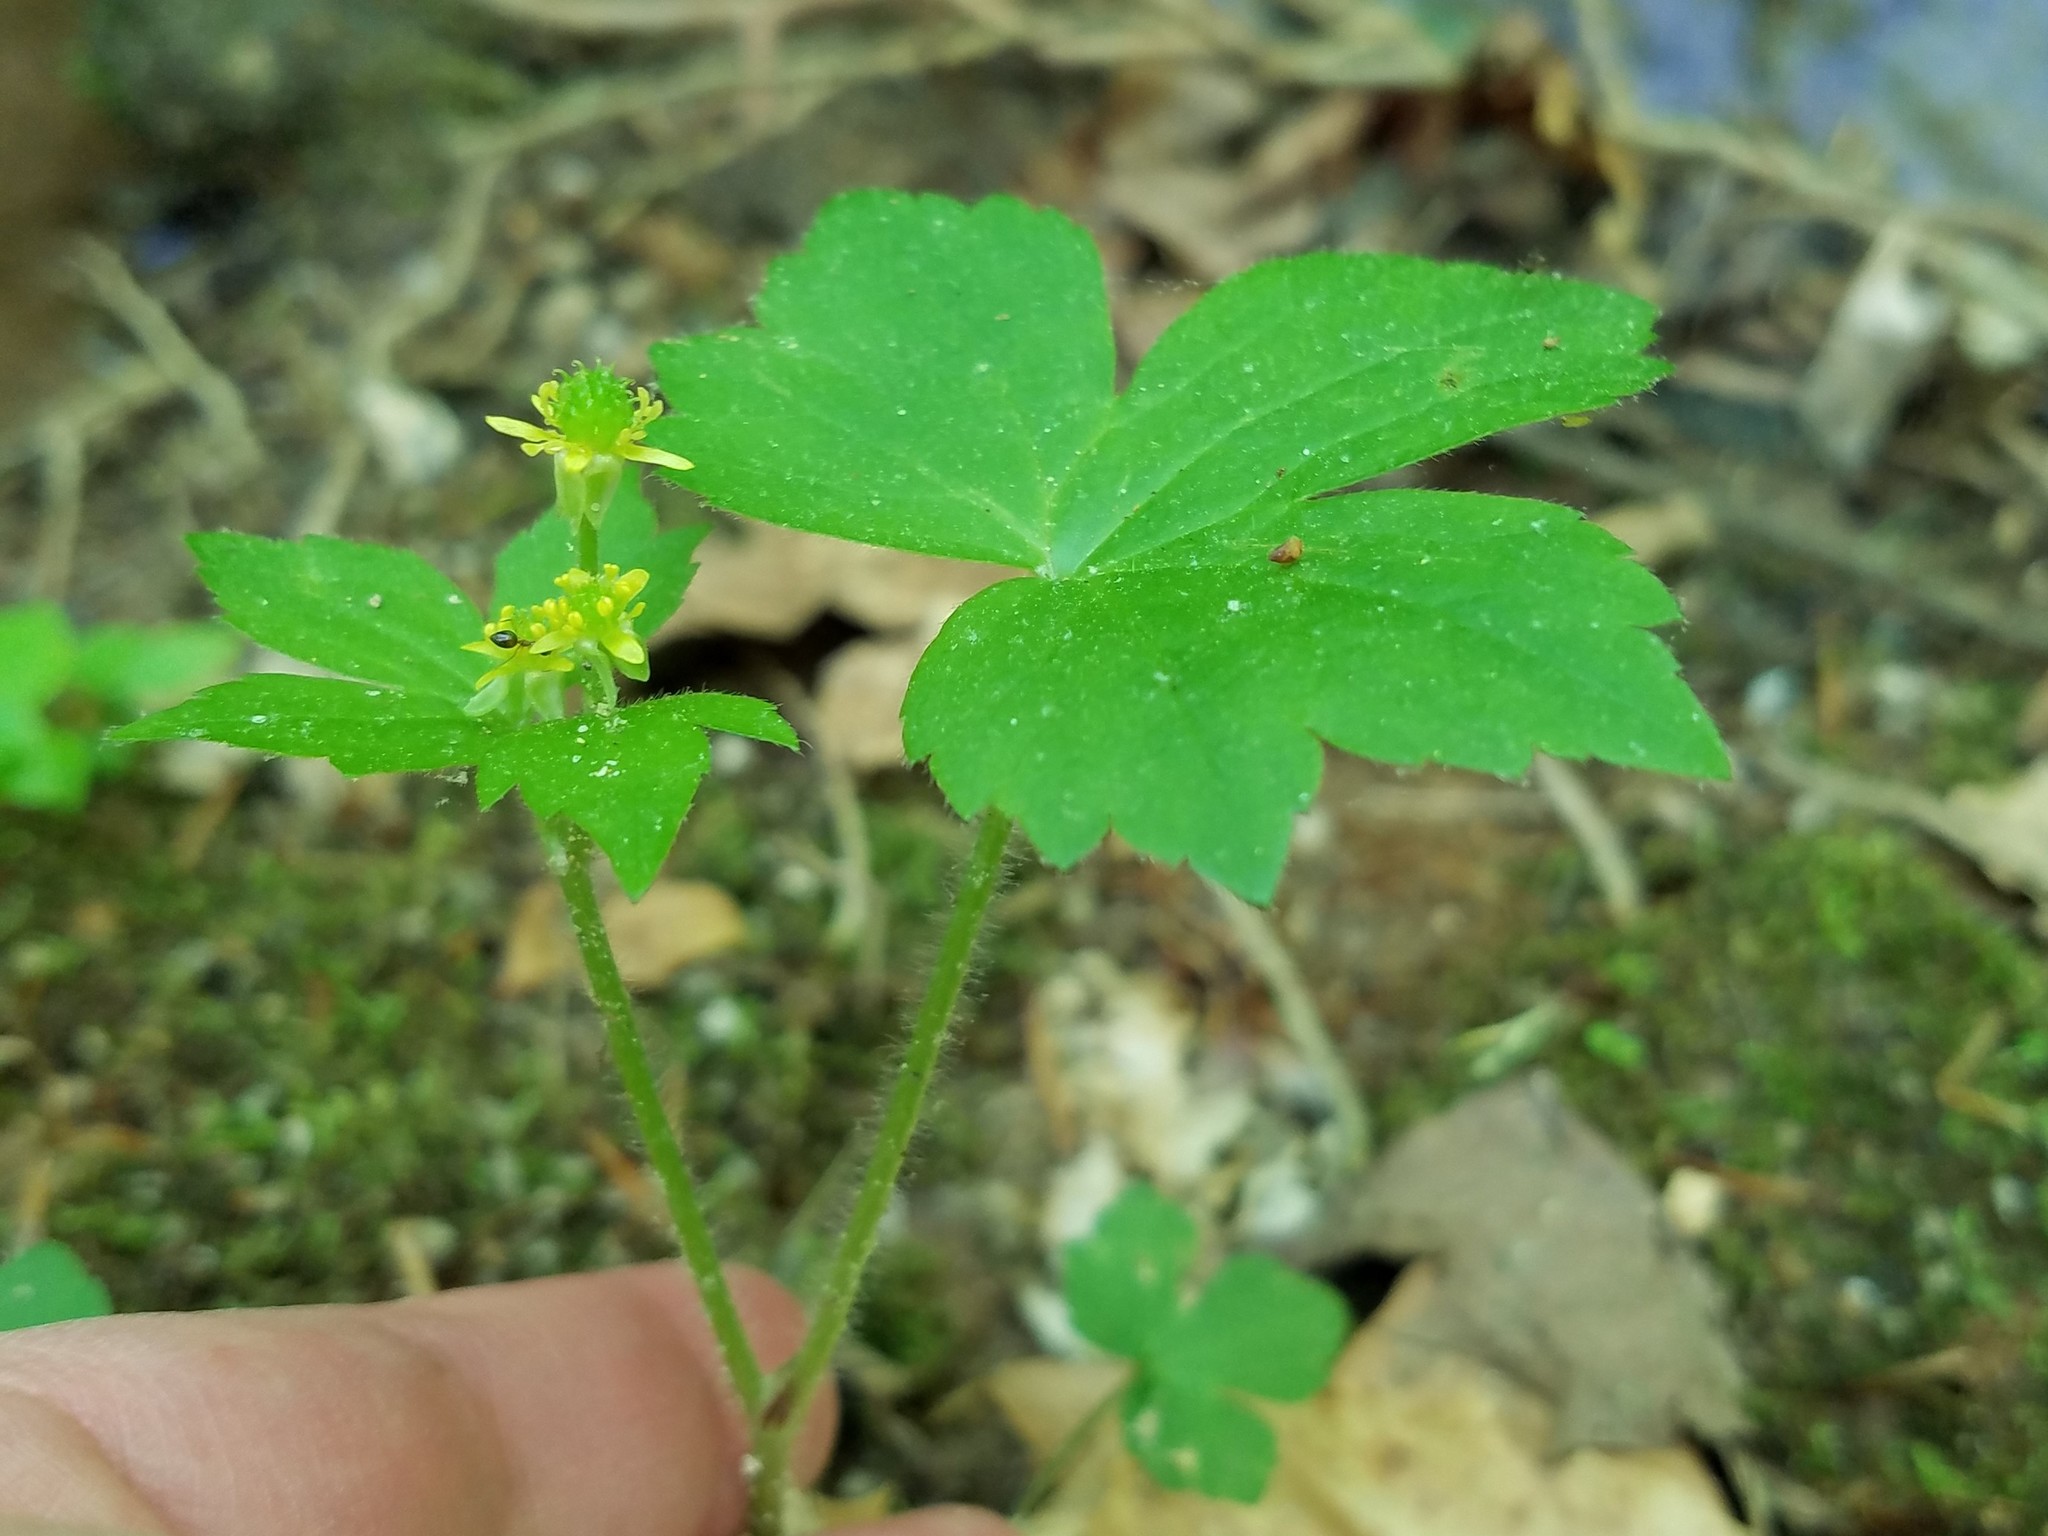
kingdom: Plantae
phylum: Tracheophyta
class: Magnoliopsida
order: Ranunculales
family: Ranunculaceae
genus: Ranunculus
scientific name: Ranunculus recurvatus
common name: Blisterwort
